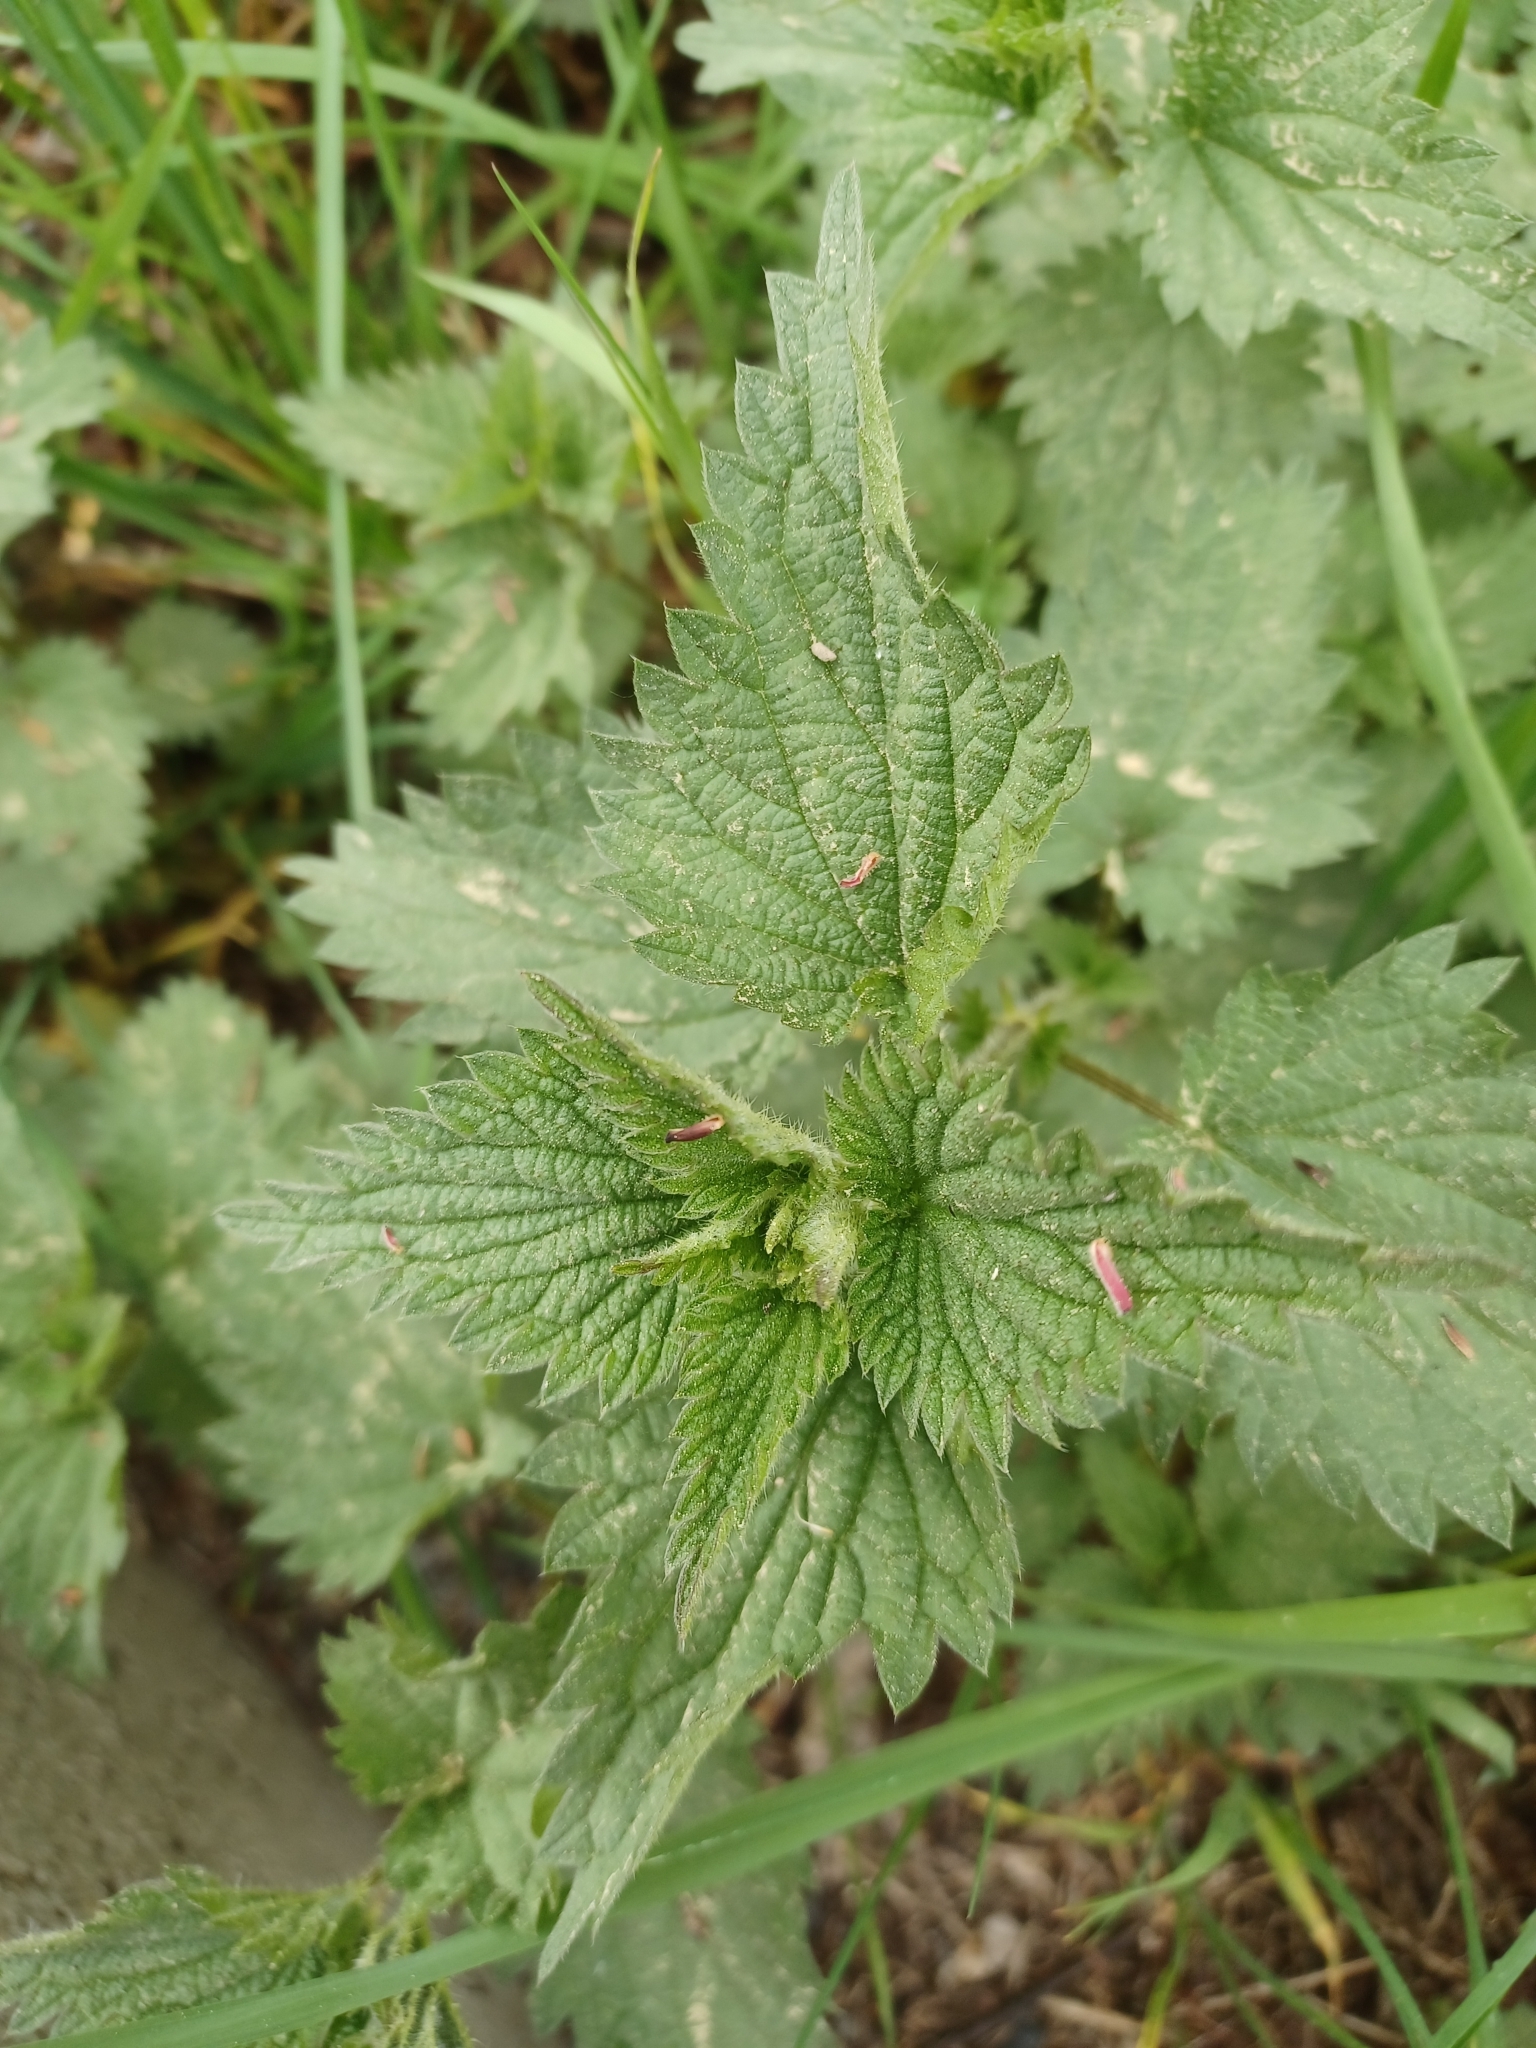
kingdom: Plantae
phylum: Tracheophyta
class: Magnoliopsida
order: Rosales
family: Urticaceae
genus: Urtica
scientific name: Urtica dioica
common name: Common nettle
